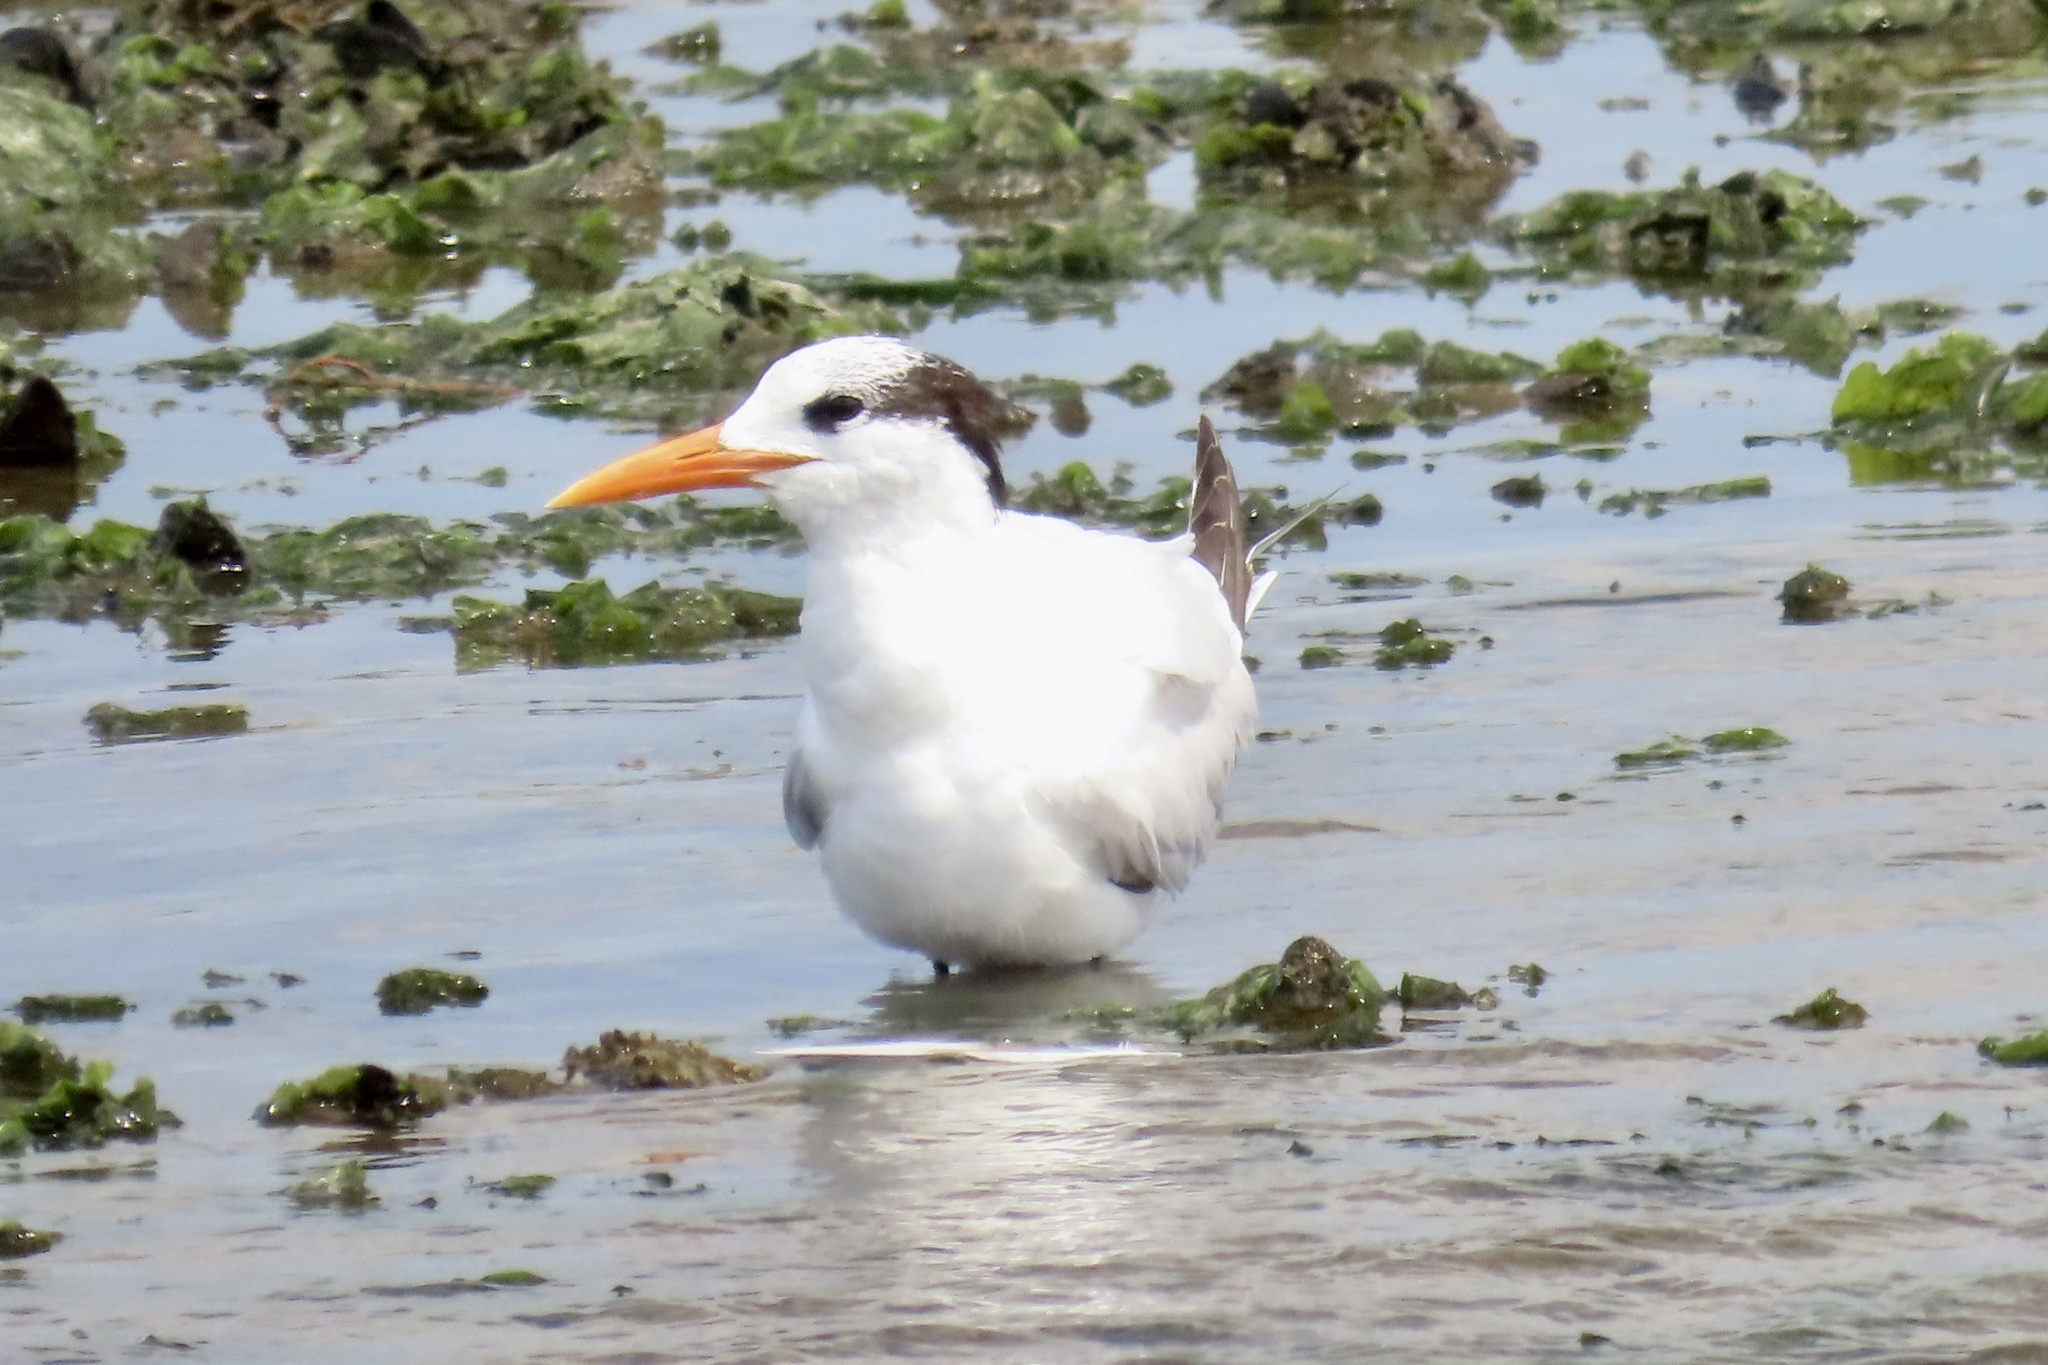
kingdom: Animalia
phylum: Chordata
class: Aves
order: Charadriiformes
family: Laridae
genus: Thalasseus
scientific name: Thalasseus maximus
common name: Royal tern
